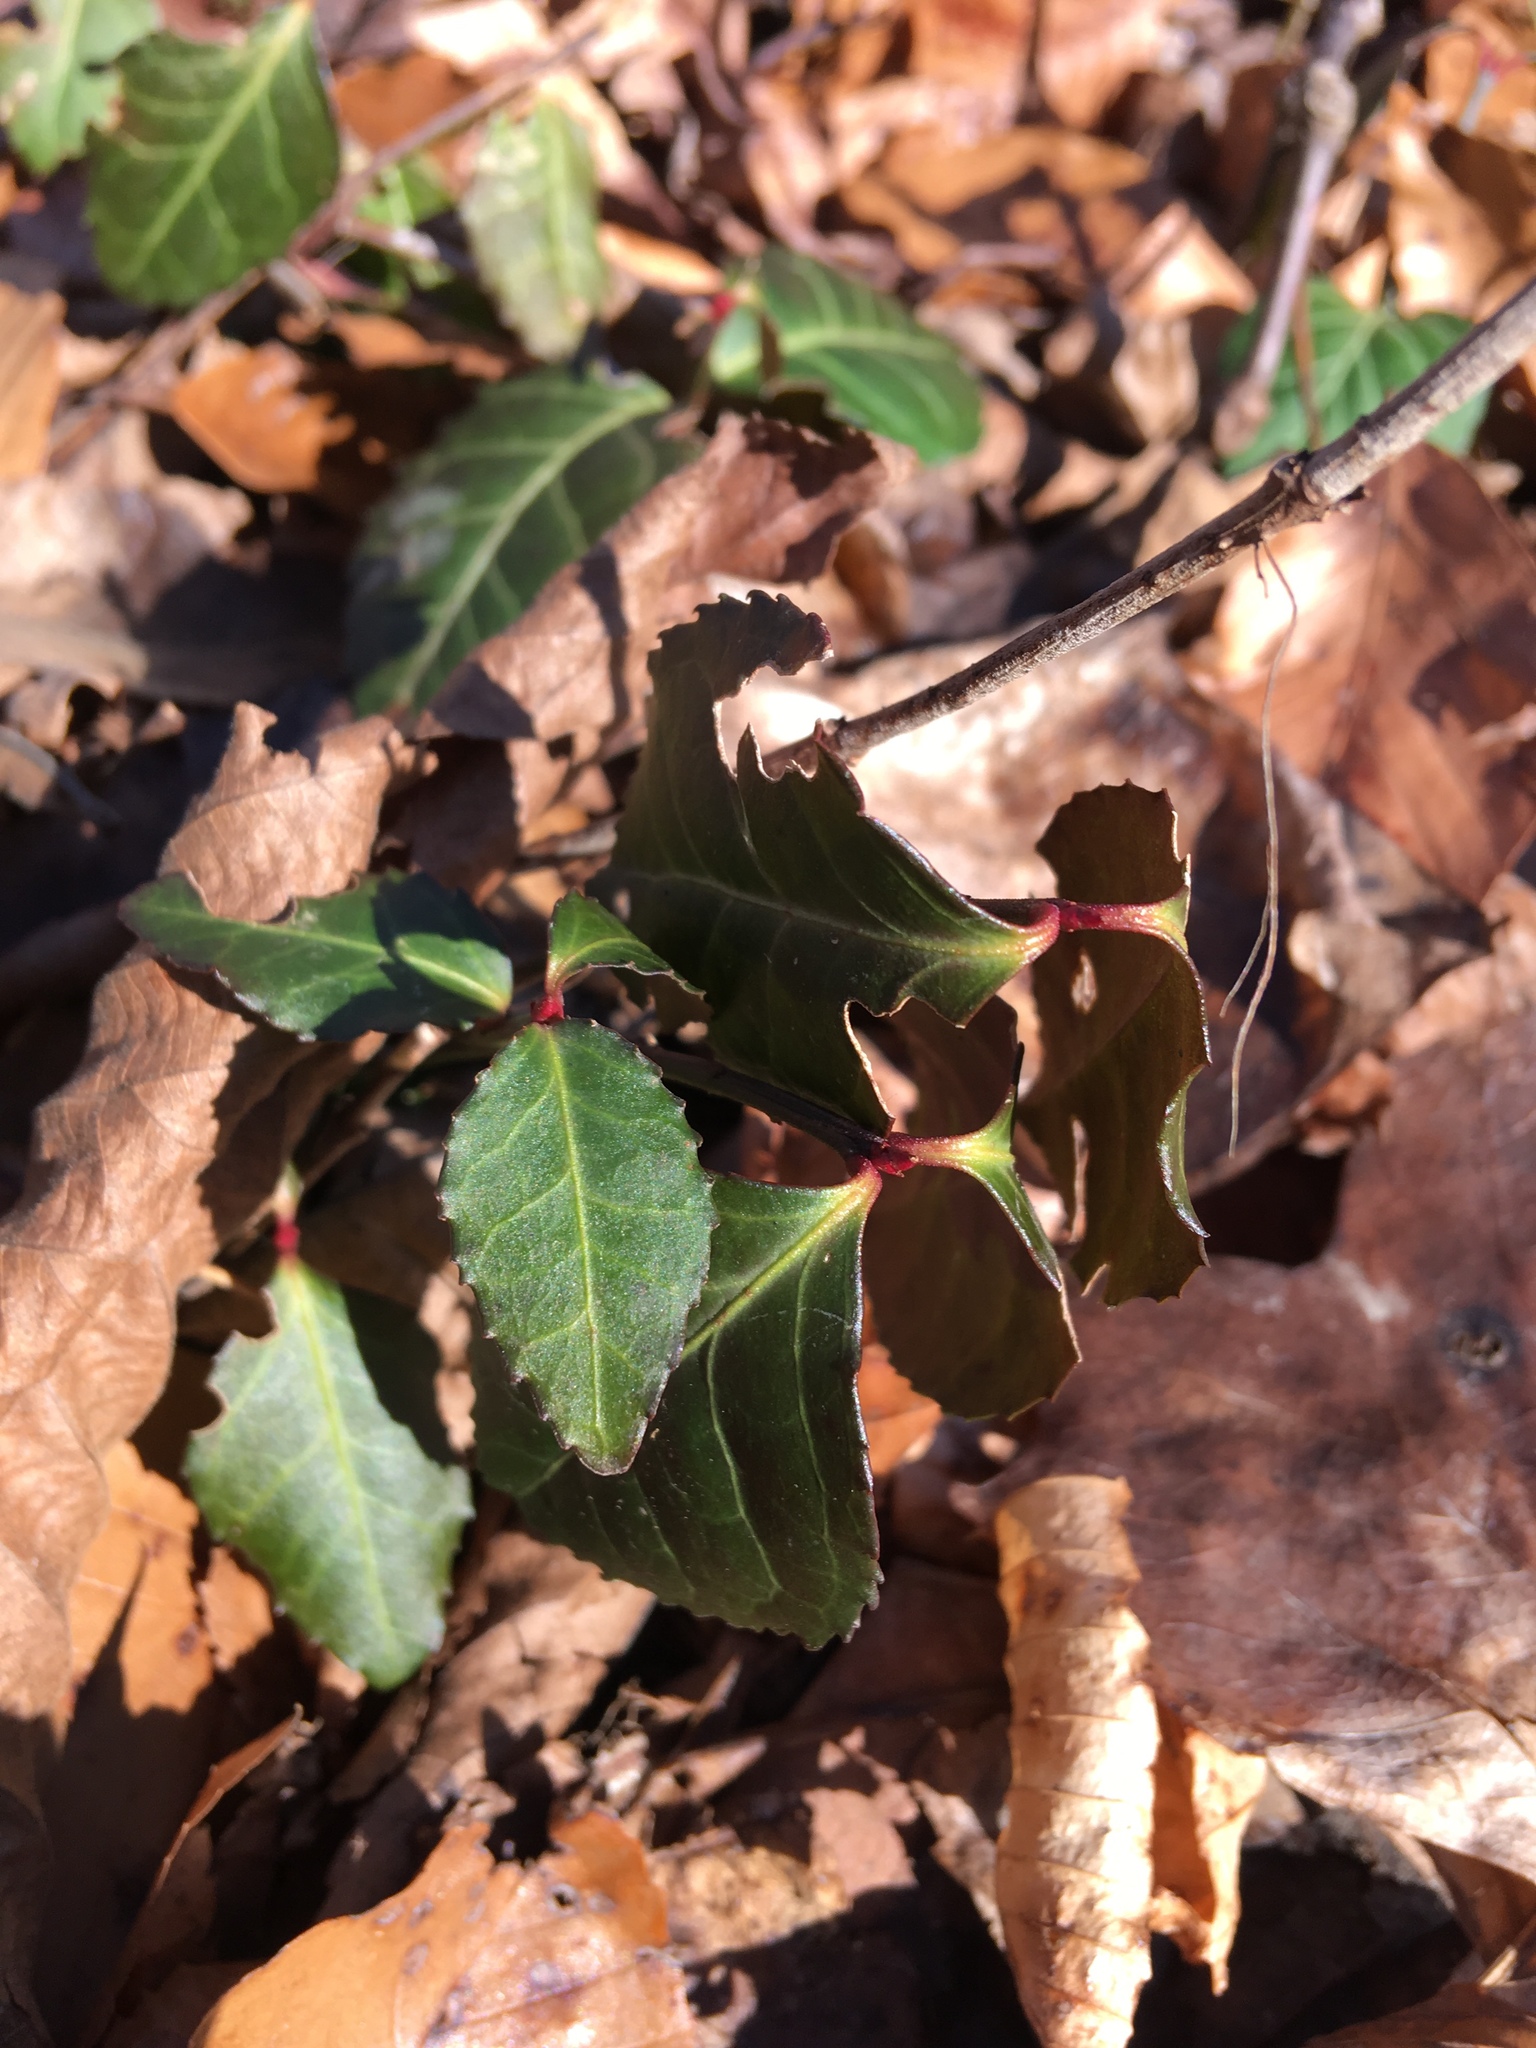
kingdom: Plantae
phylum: Tracheophyta
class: Magnoliopsida
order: Celastrales
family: Celastraceae
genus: Euonymus
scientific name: Euonymus fortunei
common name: Climbing euonymus
